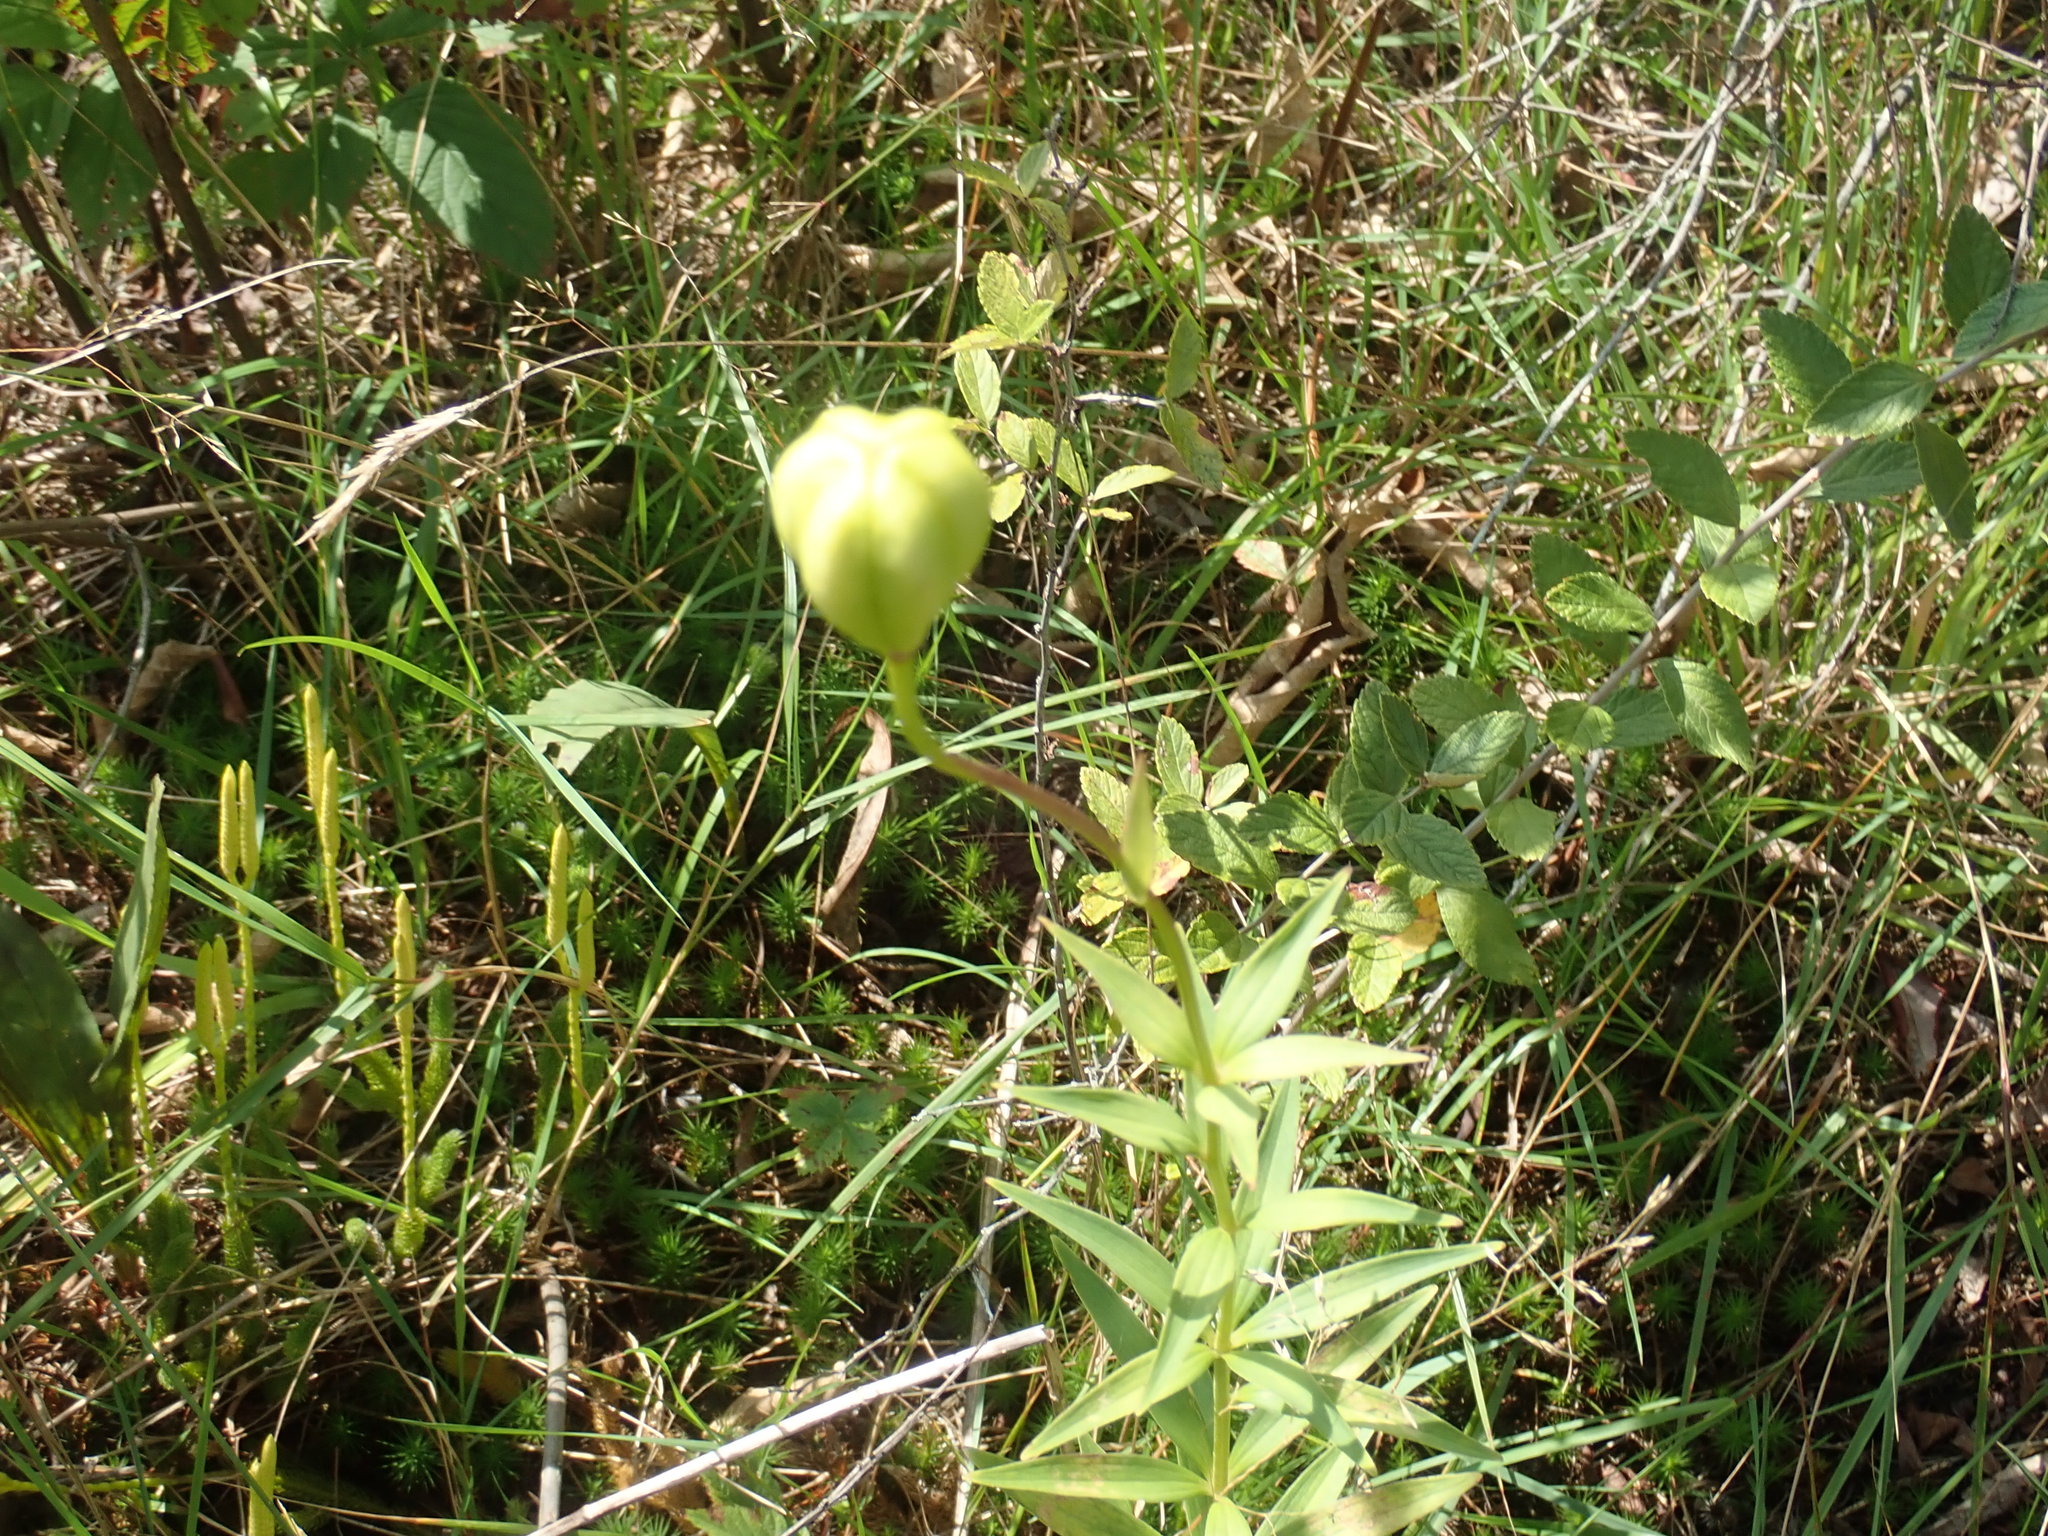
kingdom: Plantae
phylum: Tracheophyta
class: Liliopsida
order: Liliales
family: Liliaceae
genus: Lilium
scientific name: Lilium philadelphicum
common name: Red lily
